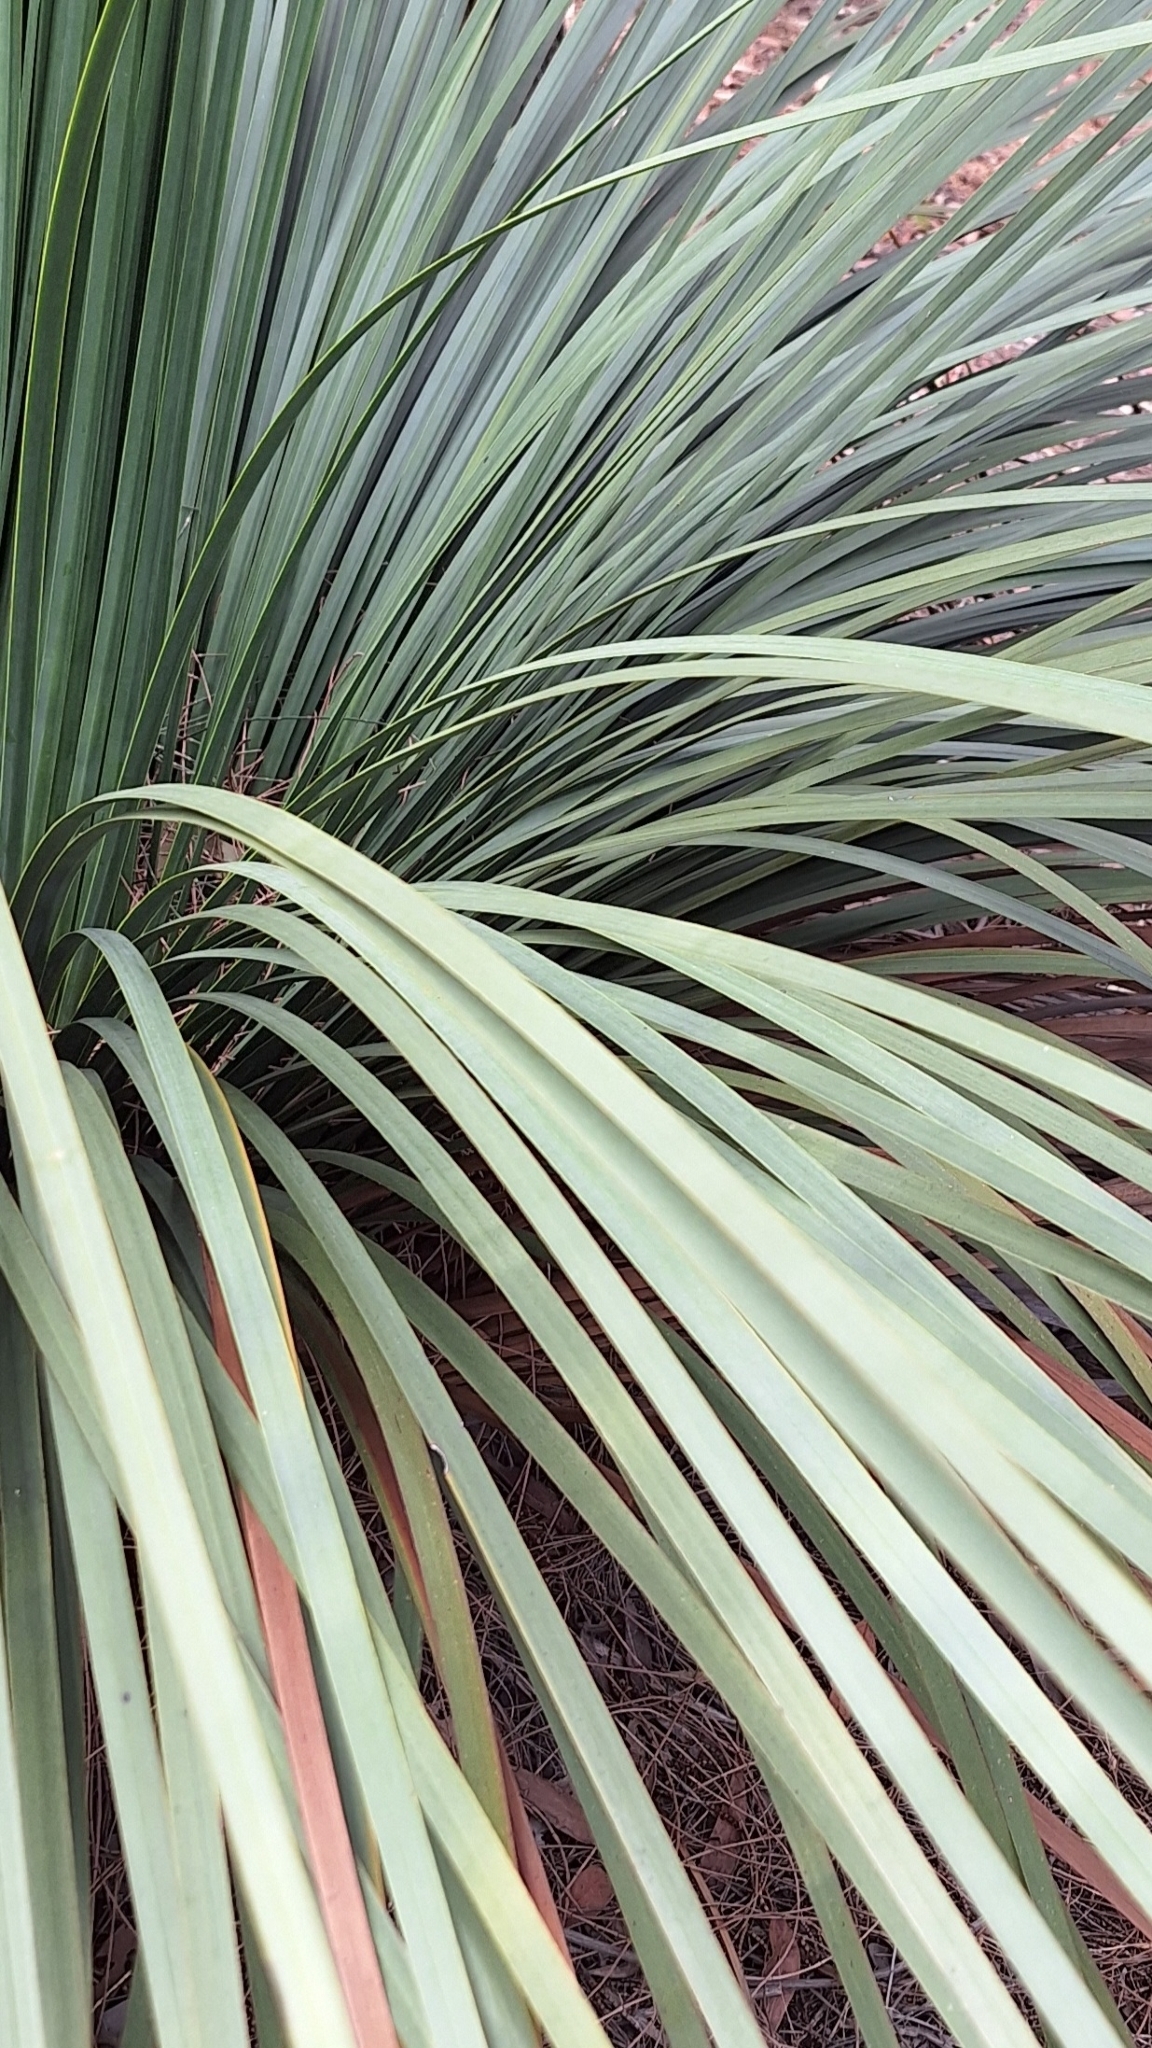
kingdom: Plantae
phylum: Tracheophyta
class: Liliopsida
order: Asparagales
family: Asphodelaceae
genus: Xanthorrhoea
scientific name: Xanthorrhoea semiplana
